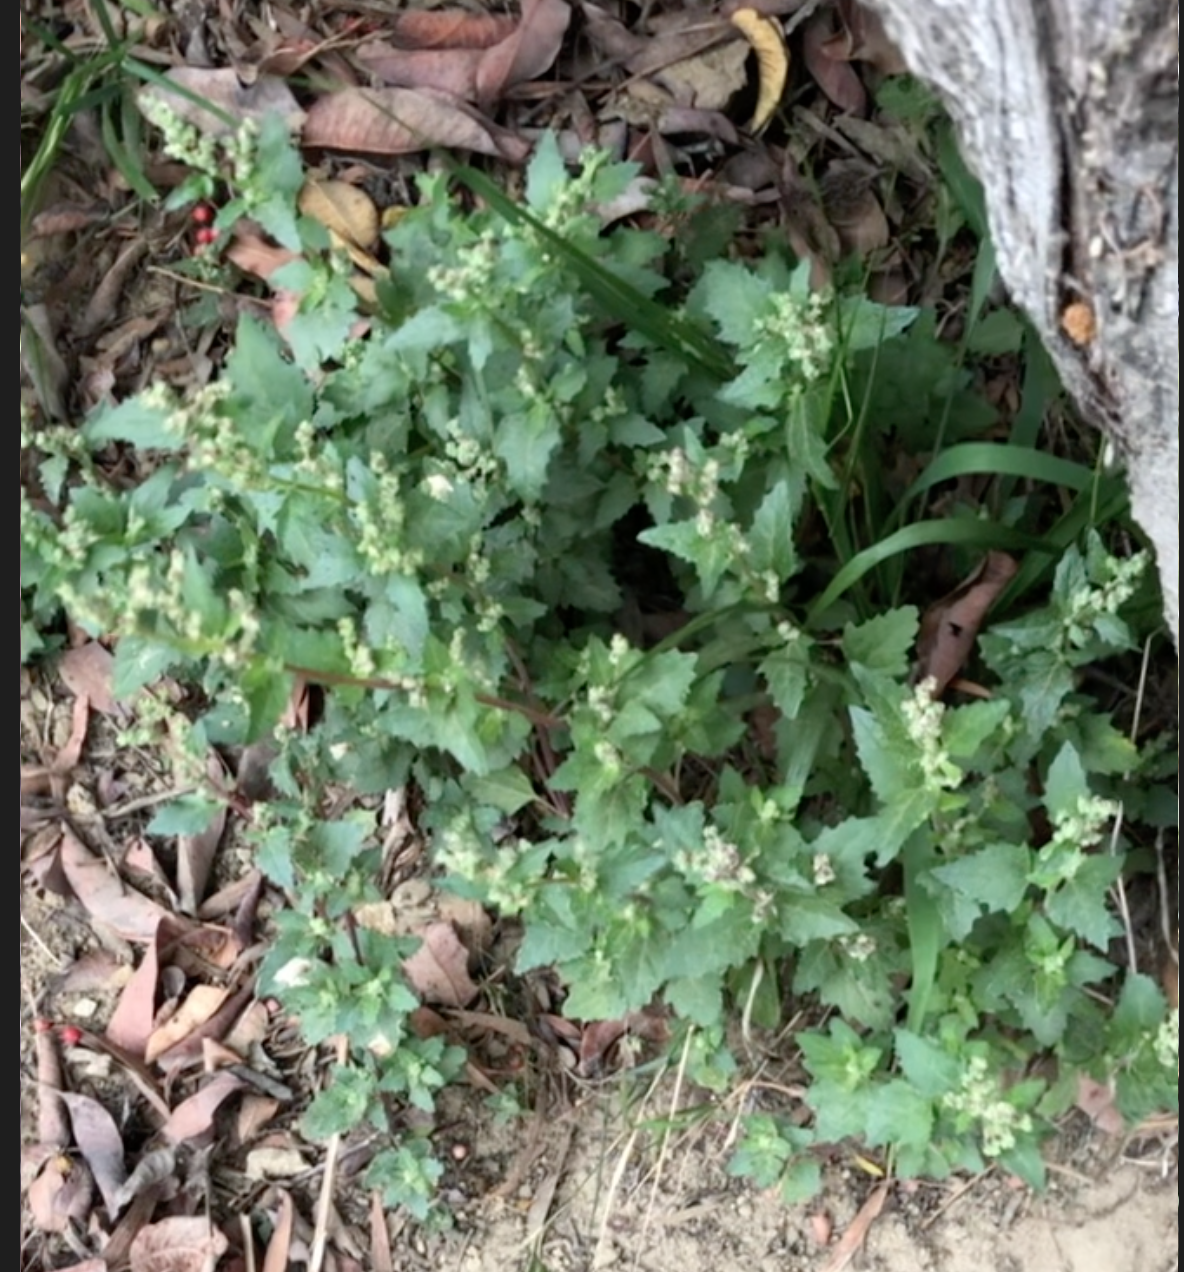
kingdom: Plantae
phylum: Tracheophyta
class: Magnoliopsida
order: Caryophyllales
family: Amaranthaceae
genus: Chenopodiastrum
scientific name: Chenopodiastrum murale
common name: Sowbane
